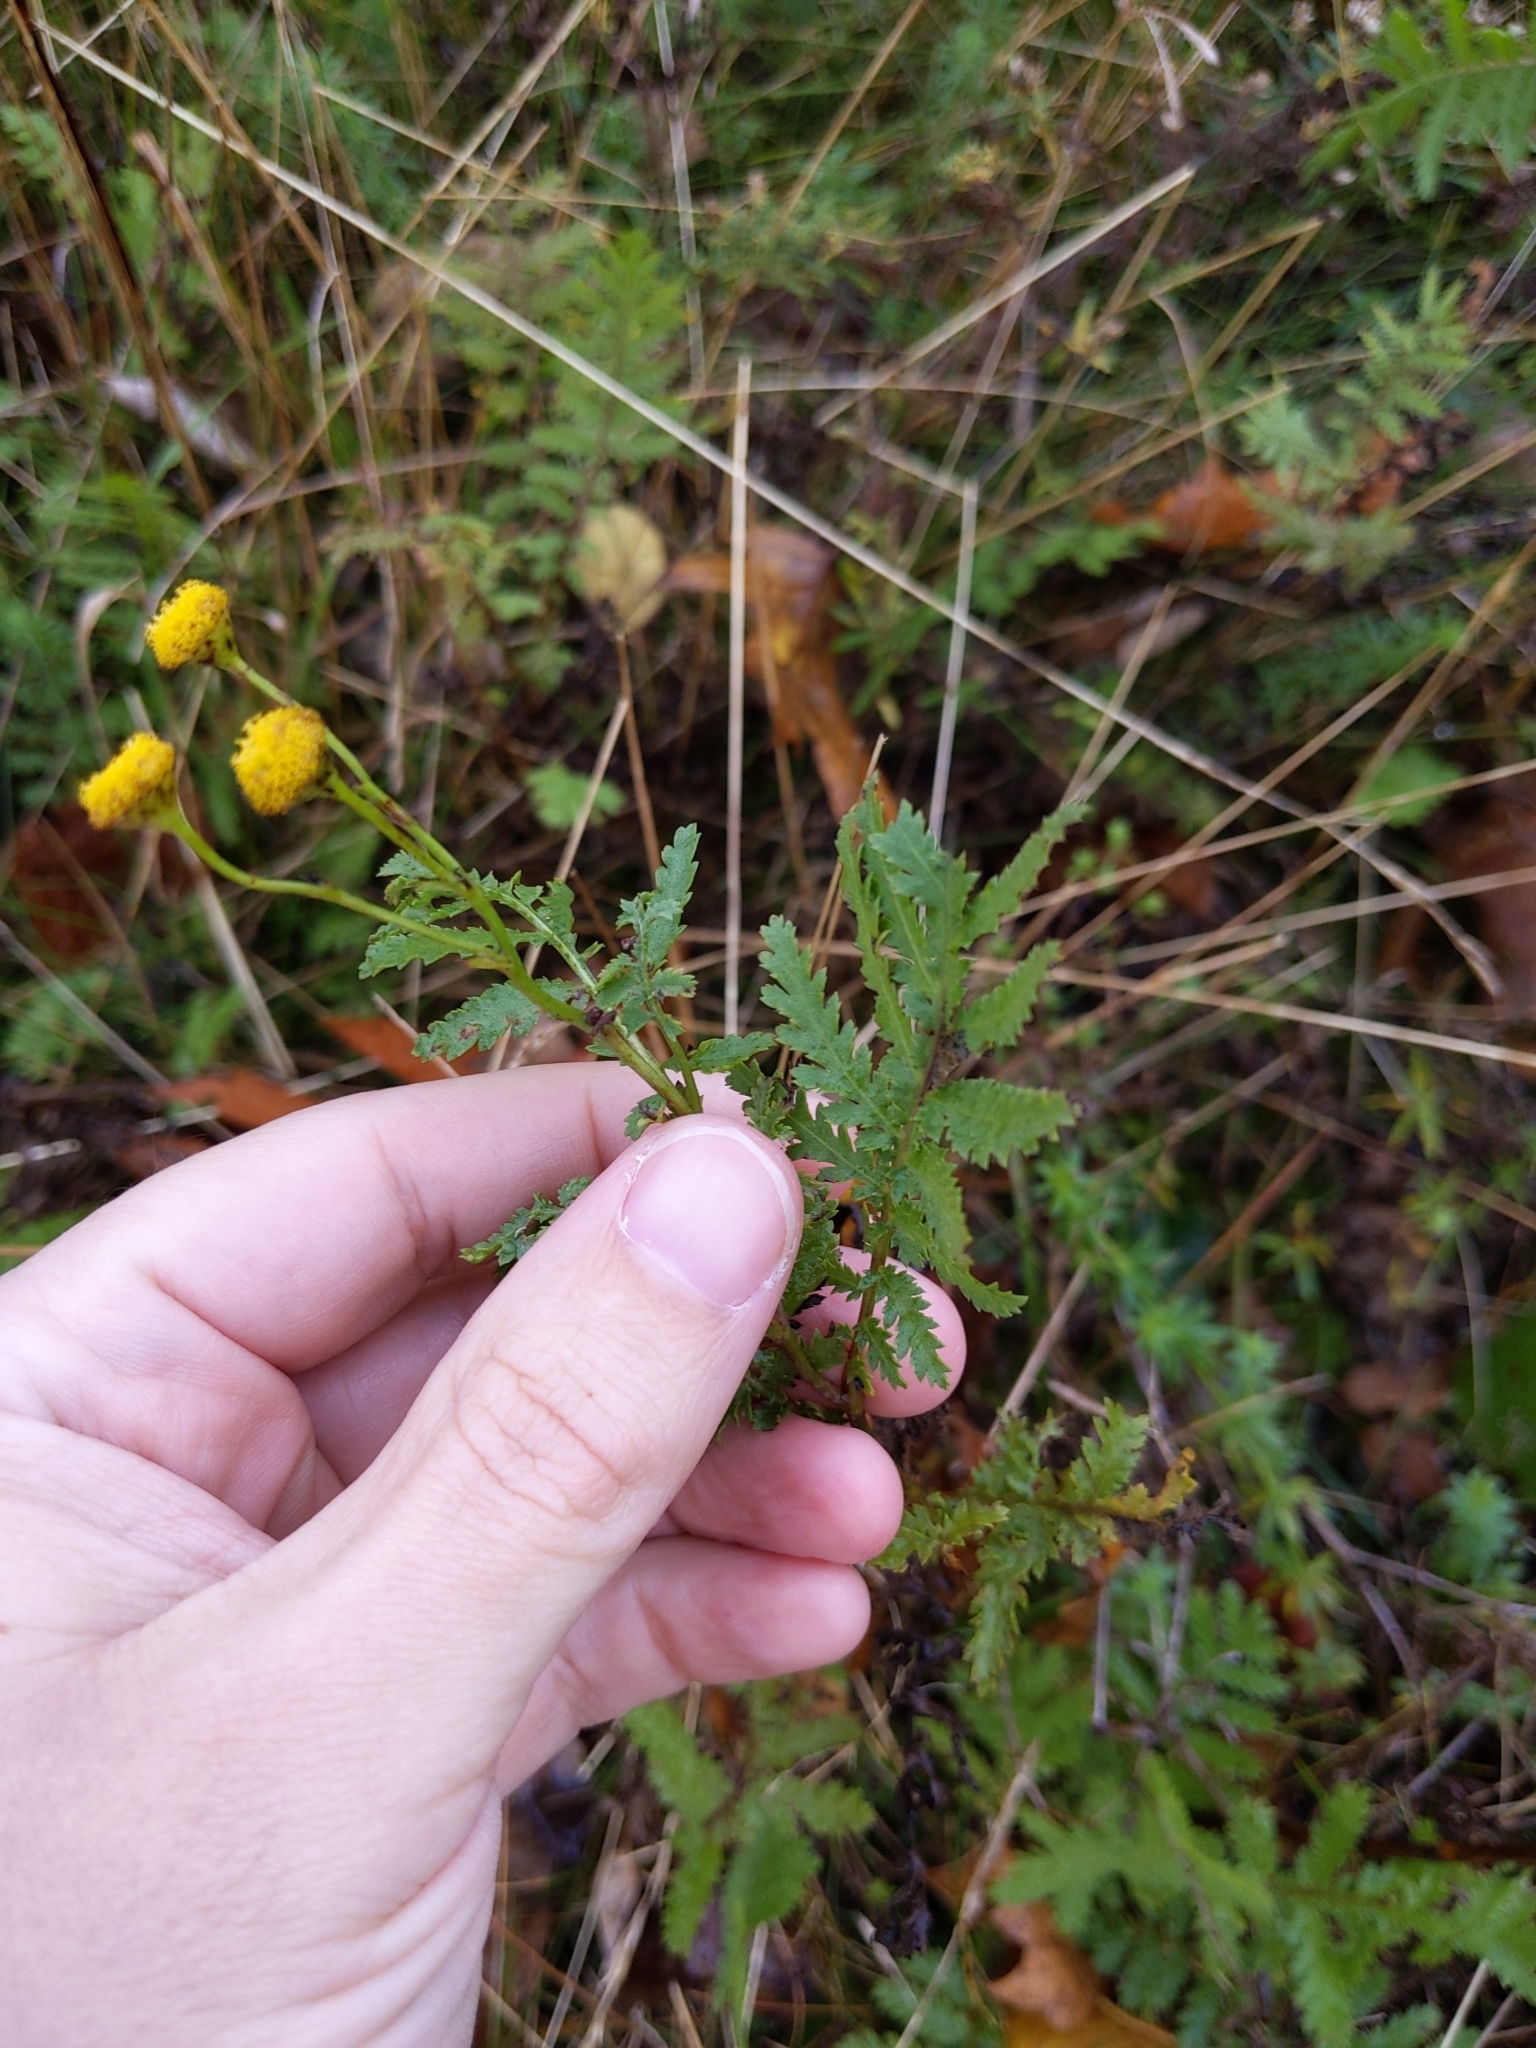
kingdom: Plantae
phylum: Tracheophyta
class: Magnoliopsida
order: Asterales
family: Asteraceae
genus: Tanacetum
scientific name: Tanacetum vulgare
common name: Common tansy
